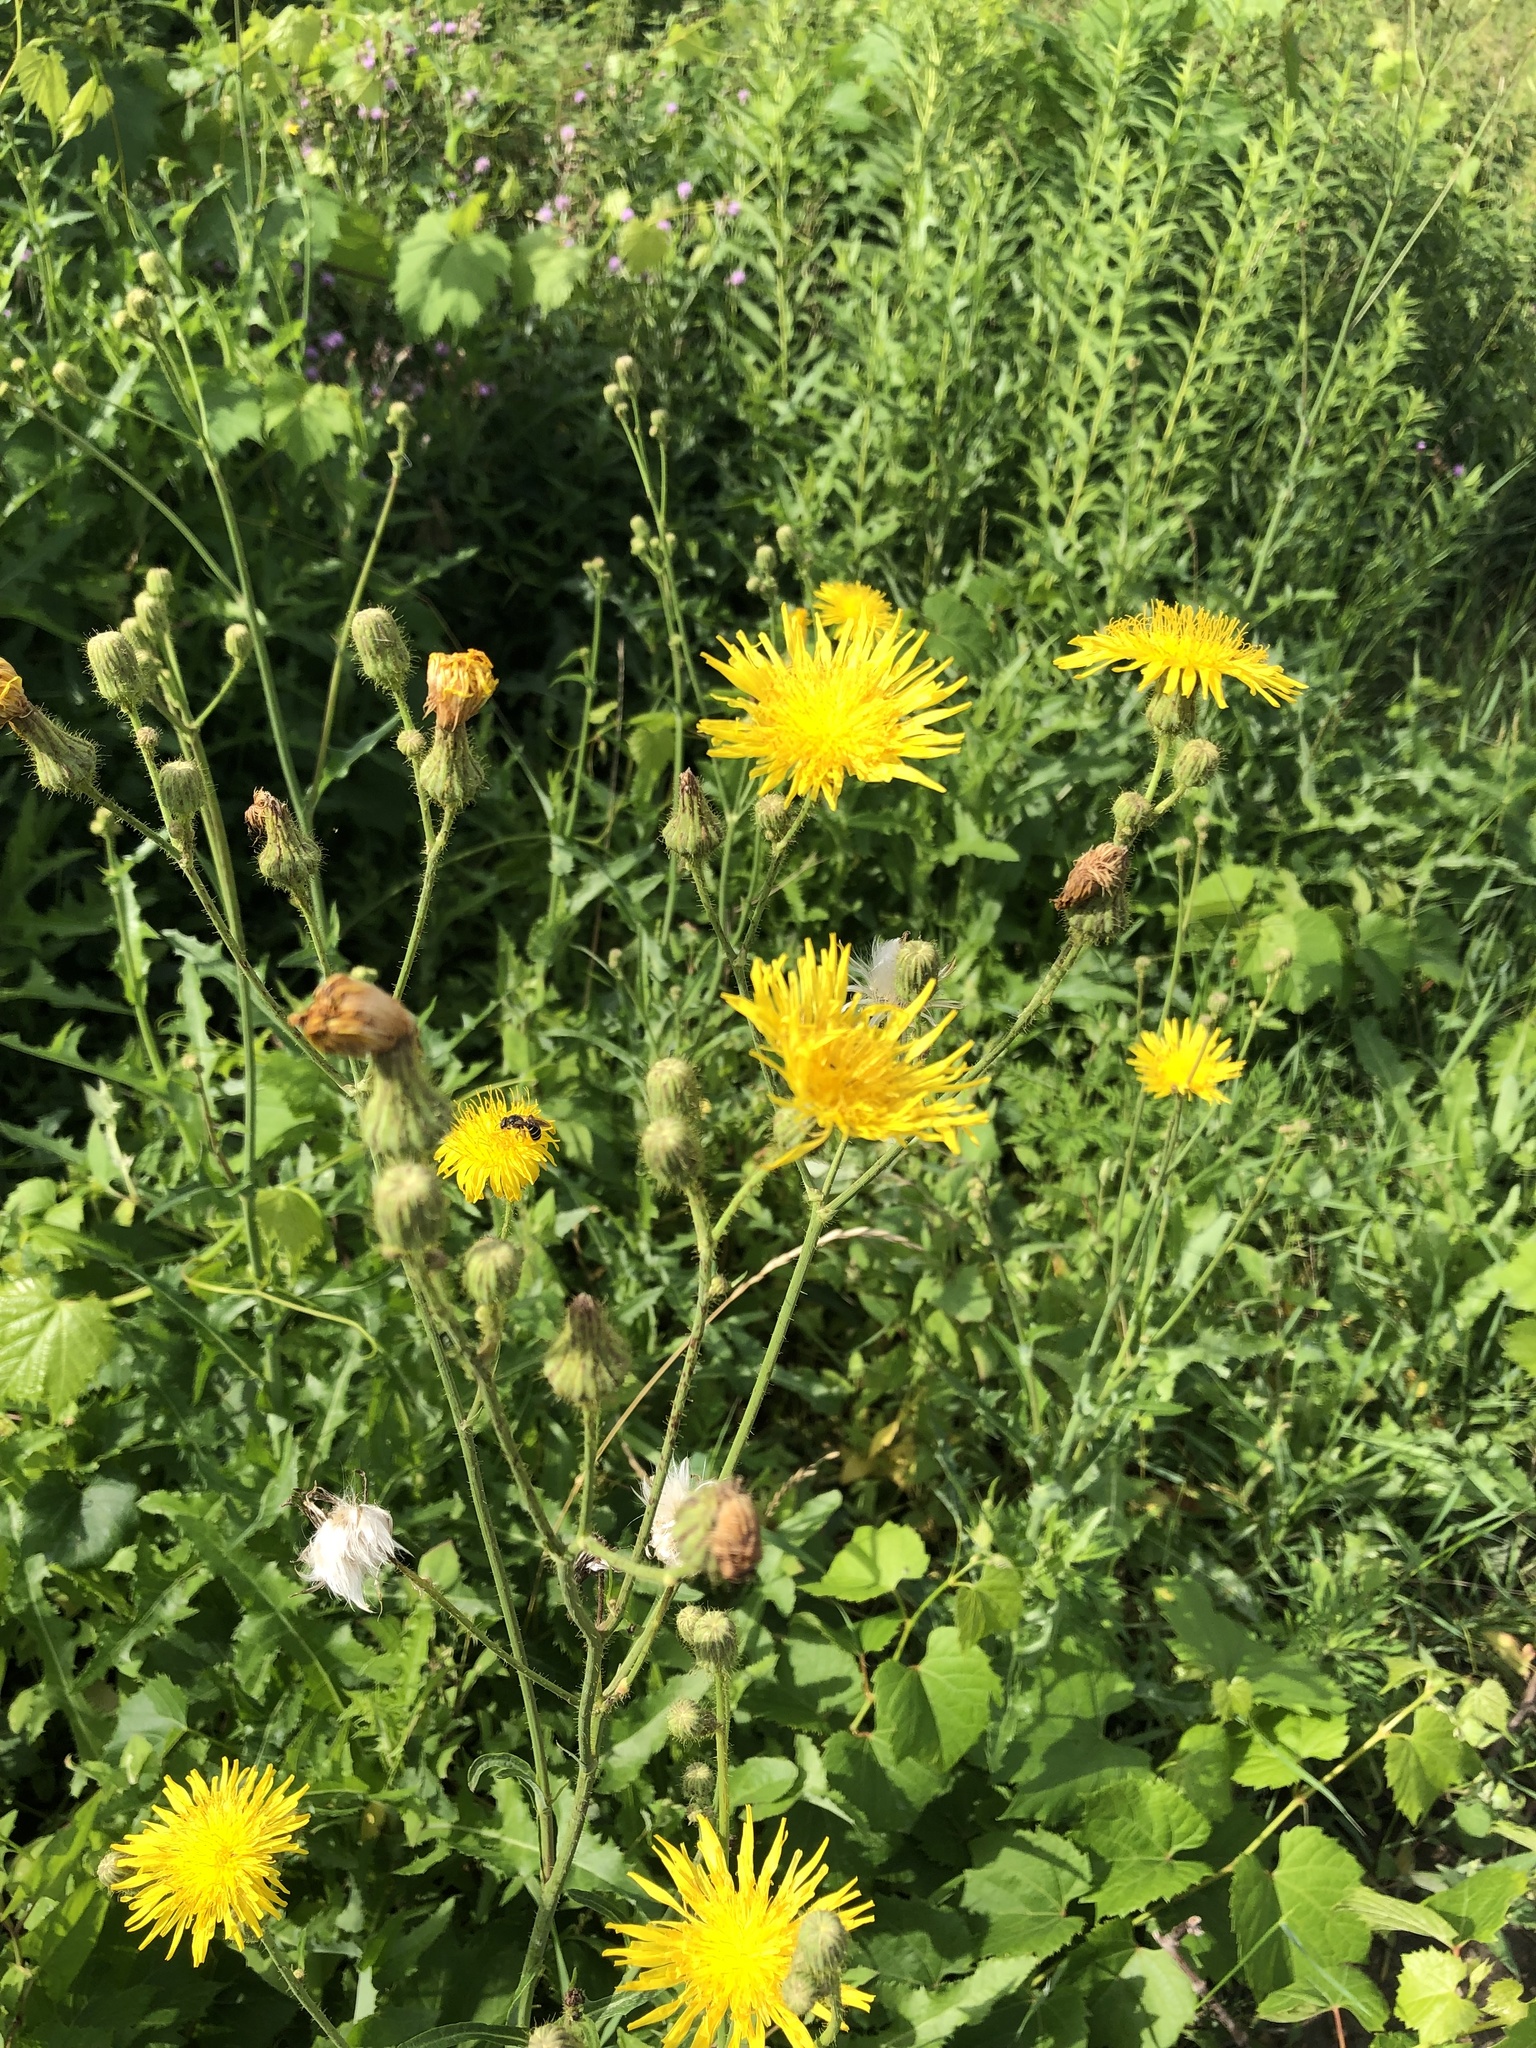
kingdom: Plantae
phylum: Tracheophyta
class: Magnoliopsida
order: Asterales
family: Asteraceae
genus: Sonchus
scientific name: Sonchus arvensis
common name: Perennial sow-thistle
